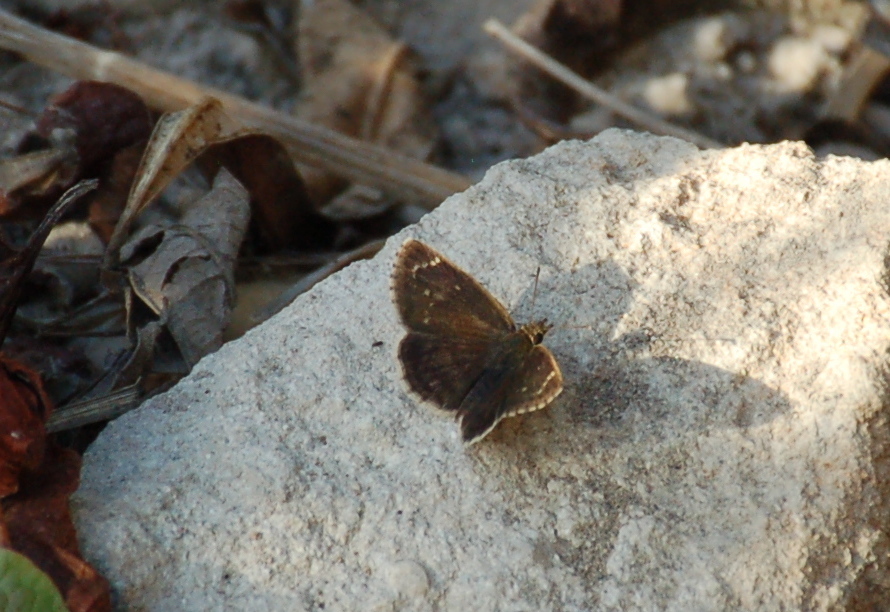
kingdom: Animalia
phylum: Arthropoda
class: Insecta
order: Lepidoptera
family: Hesperiidae
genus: Zopyrion
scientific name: Zopyrion sandace
